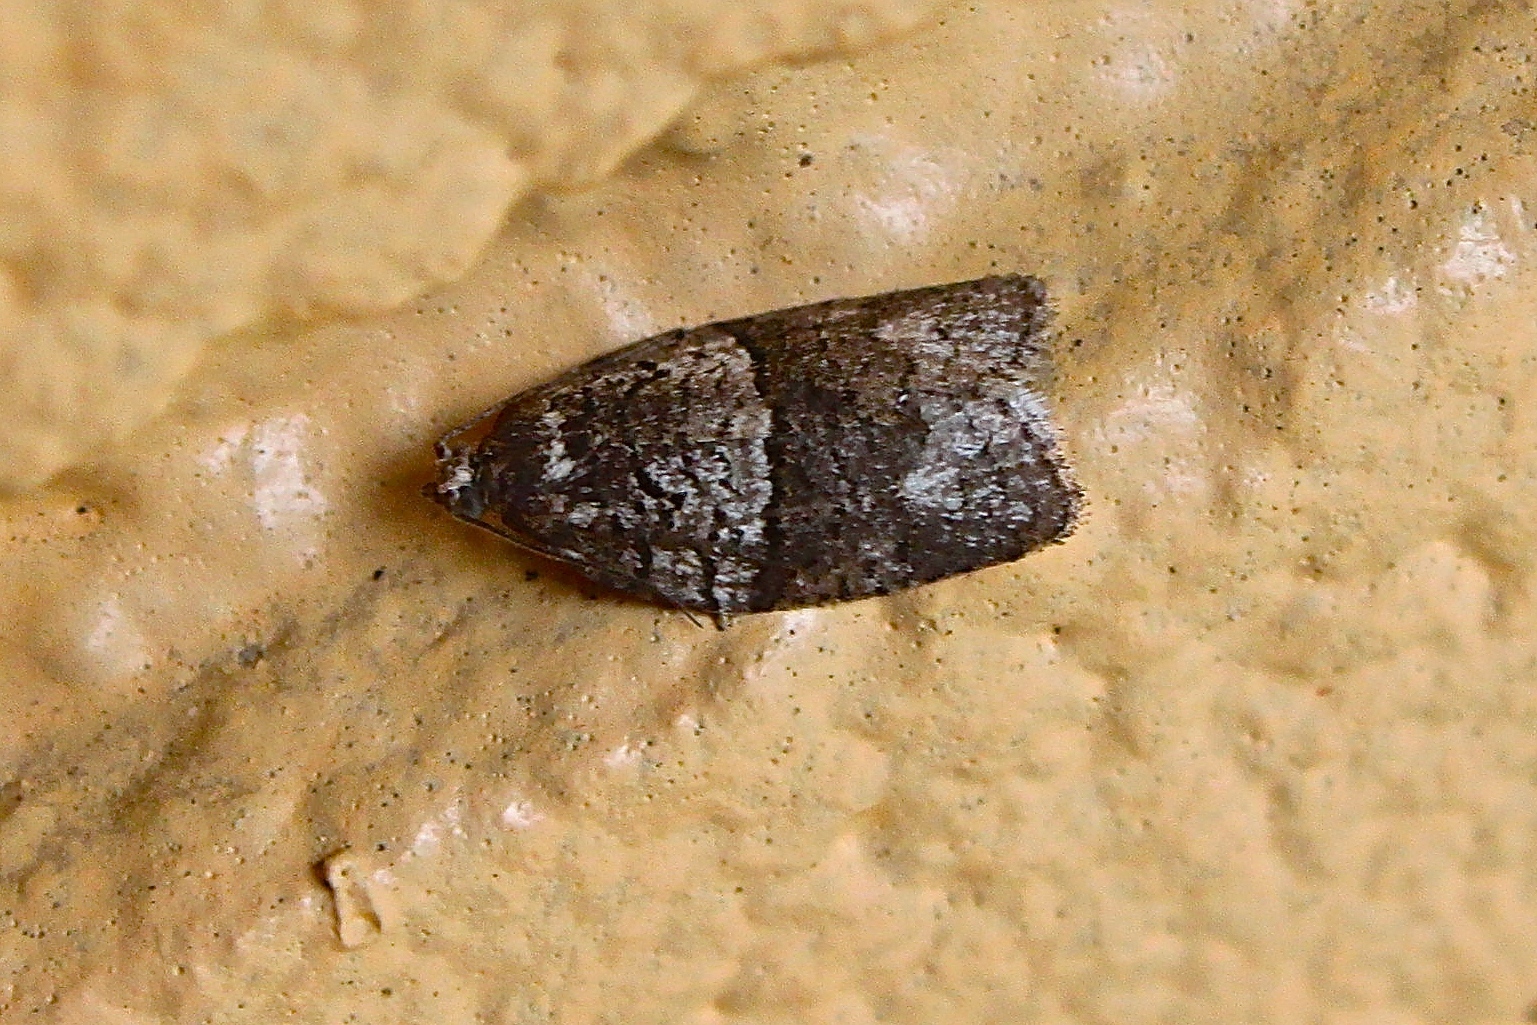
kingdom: Animalia
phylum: Arthropoda
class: Insecta
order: Lepidoptera
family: Tortricidae
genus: Syndemis
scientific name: Syndemis afflictana
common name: Gray leafroller moth
